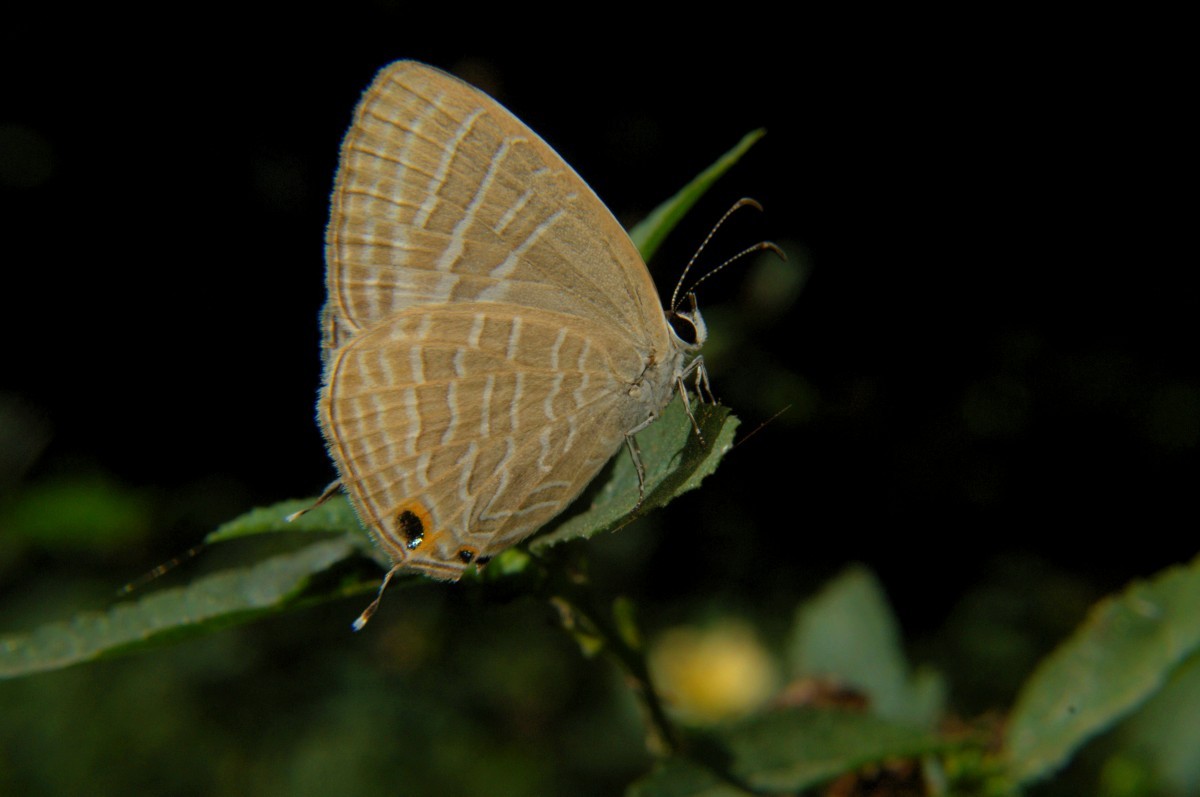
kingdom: Animalia
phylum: Arthropoda
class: Insecta
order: Lepidoptera
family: Lycaenidae
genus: Jamides
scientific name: Jamides celeno
